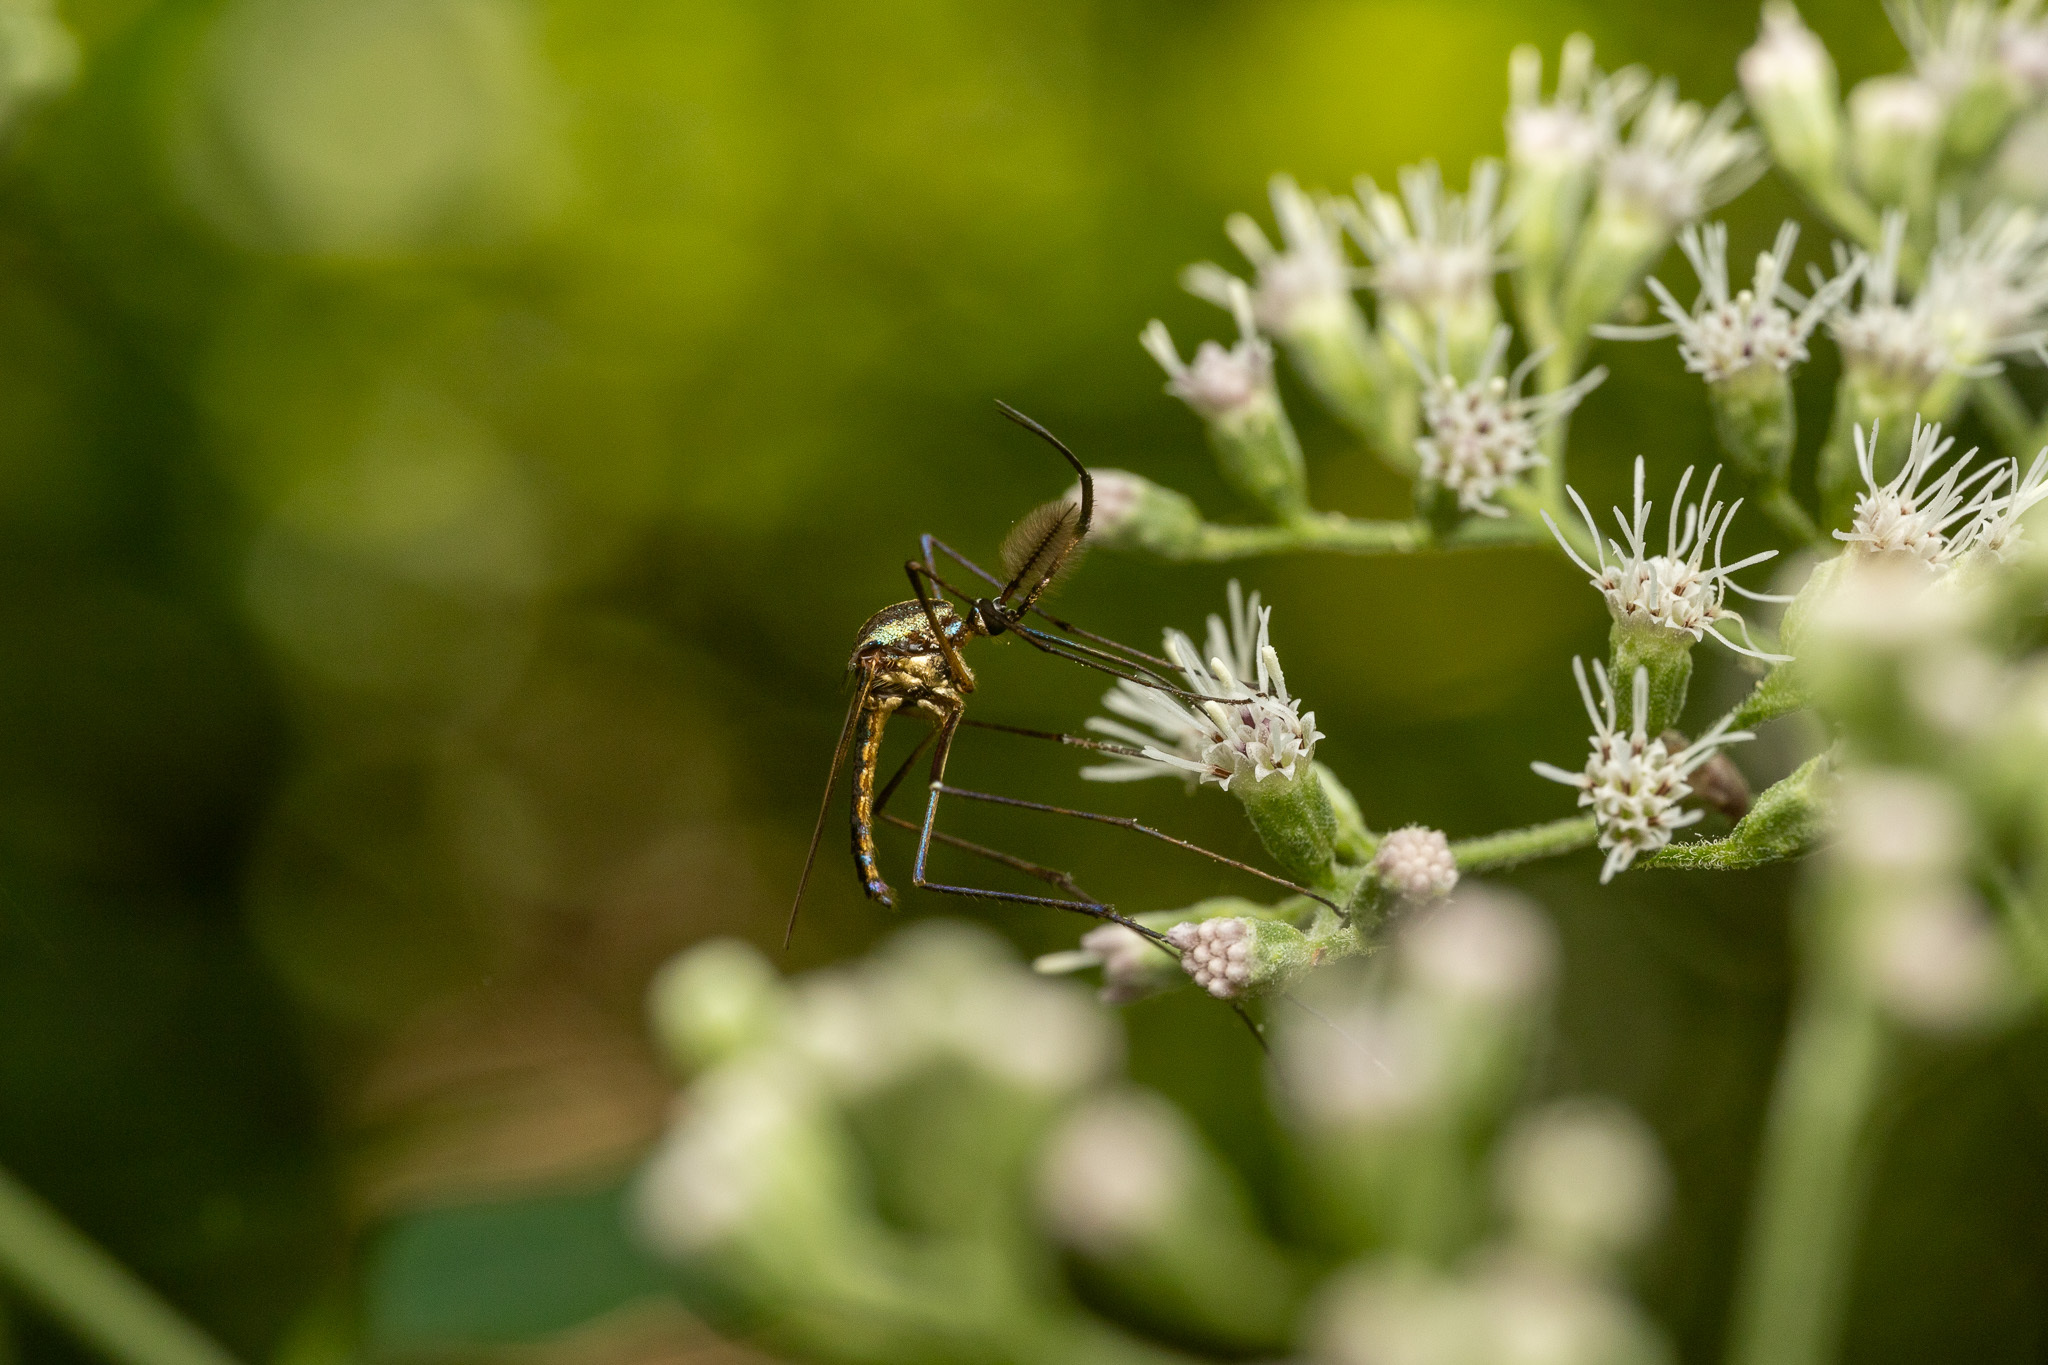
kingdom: Animalia
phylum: Arthropoda
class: Insecta
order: Diptera
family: Culicidae
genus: Toxorhynchites
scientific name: Toxorhynchites rutilus
